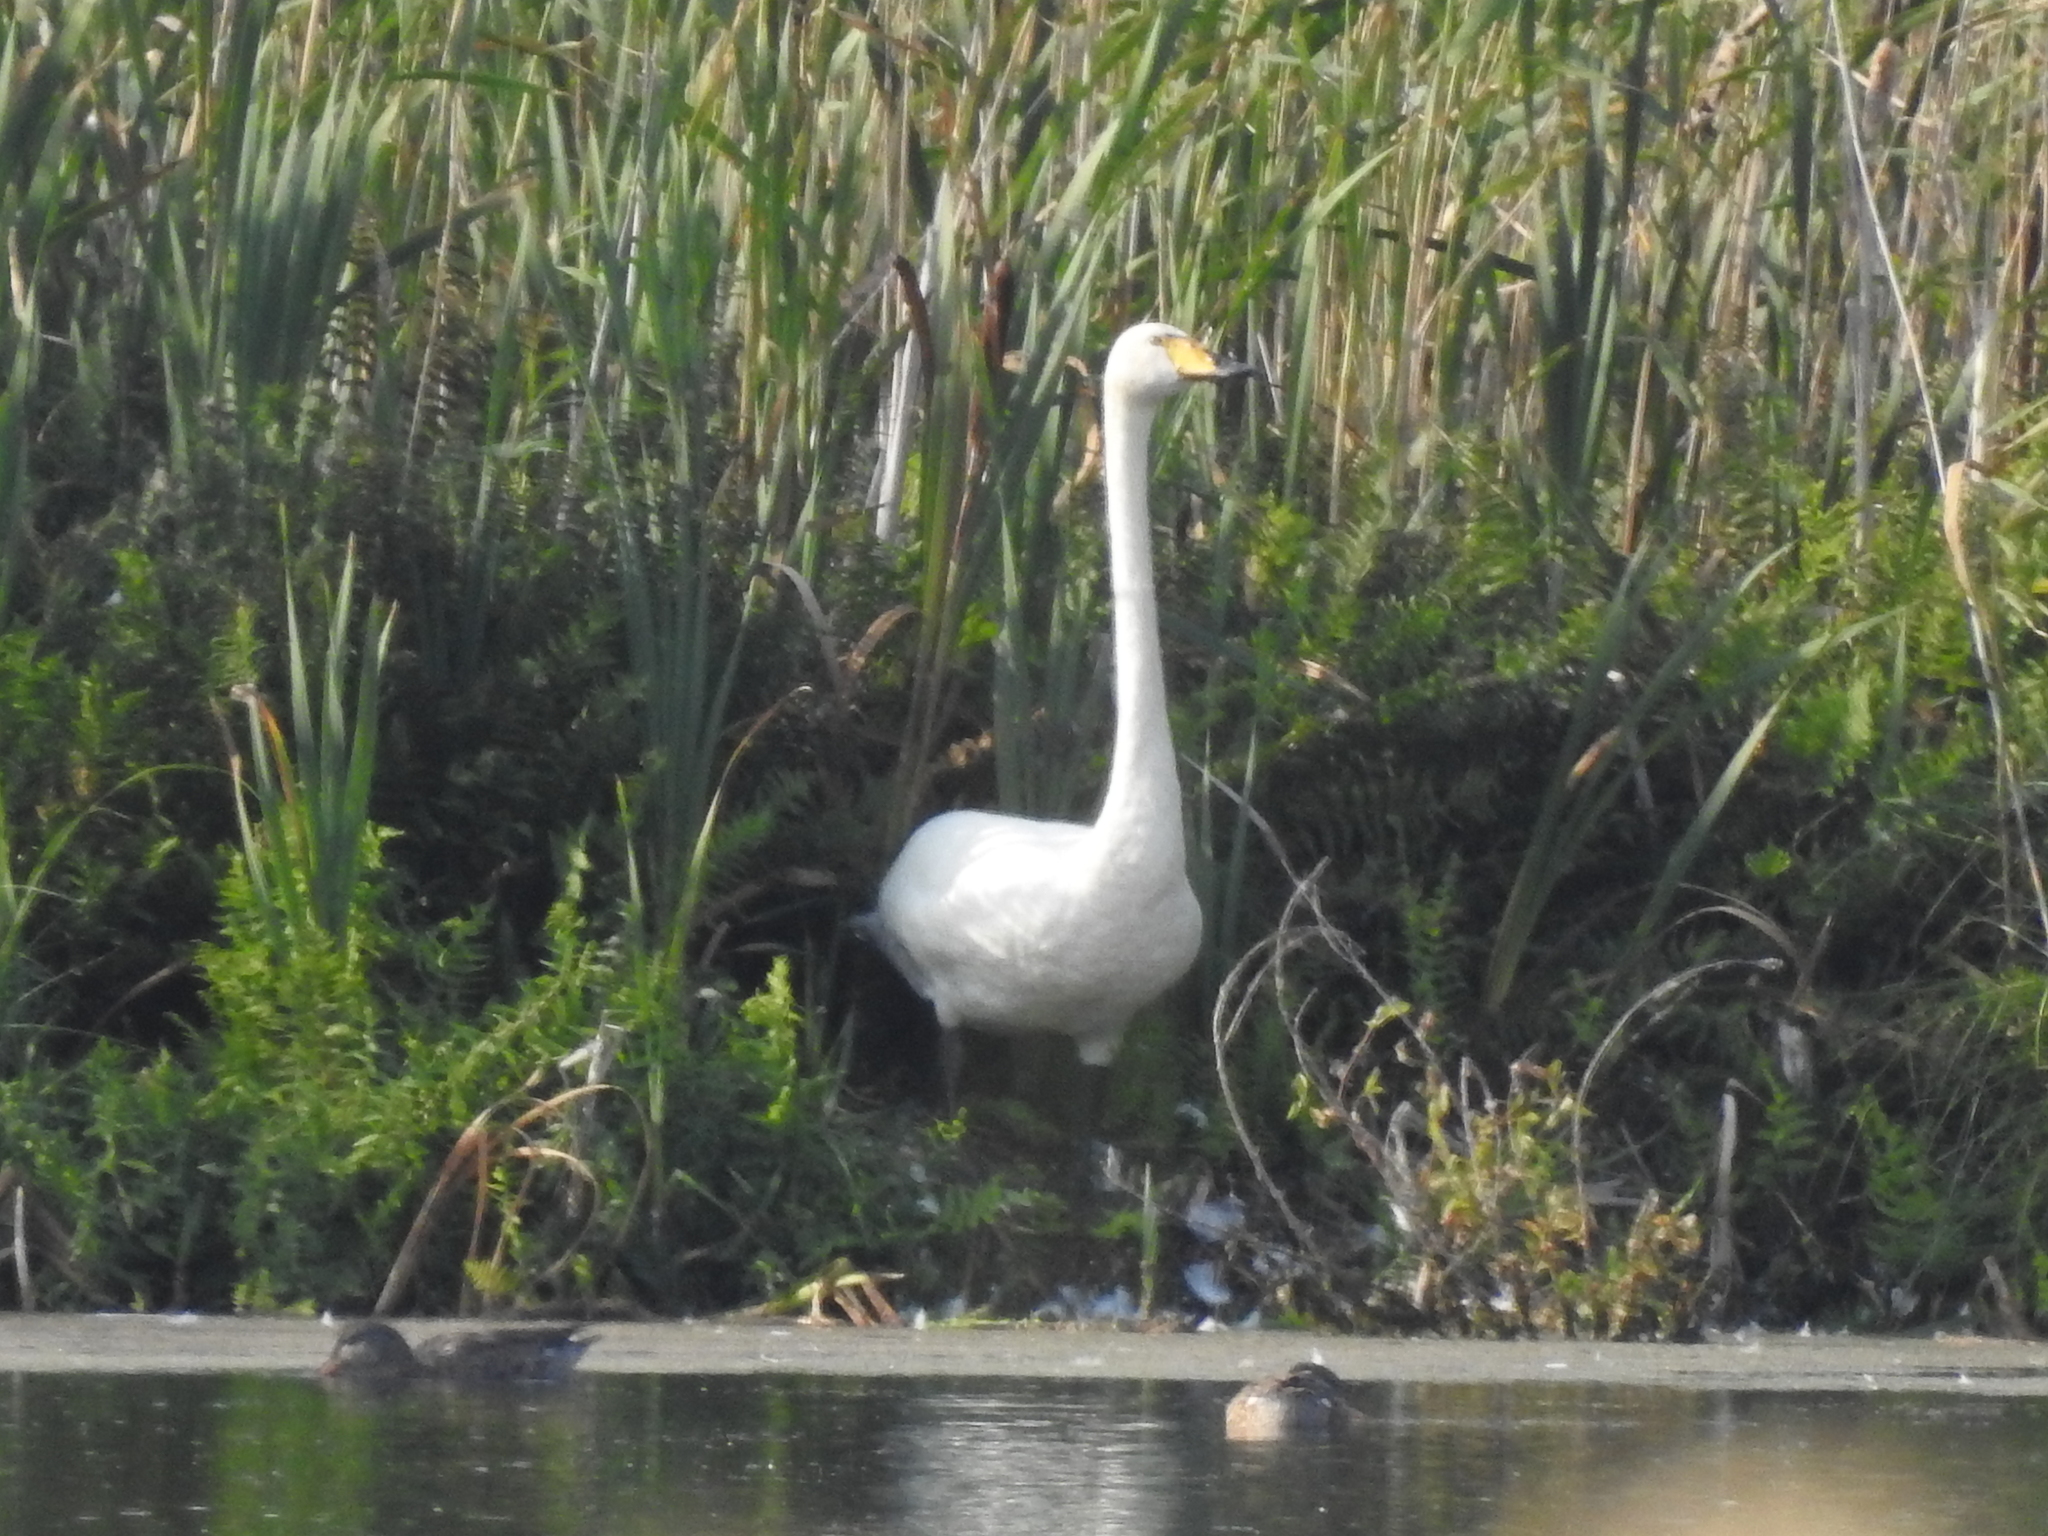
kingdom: Animalia
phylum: Chordata
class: Aves
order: Anseriformes
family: Anatidae
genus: Cygnus
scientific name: Cygnus cygnus
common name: Whooper swan
